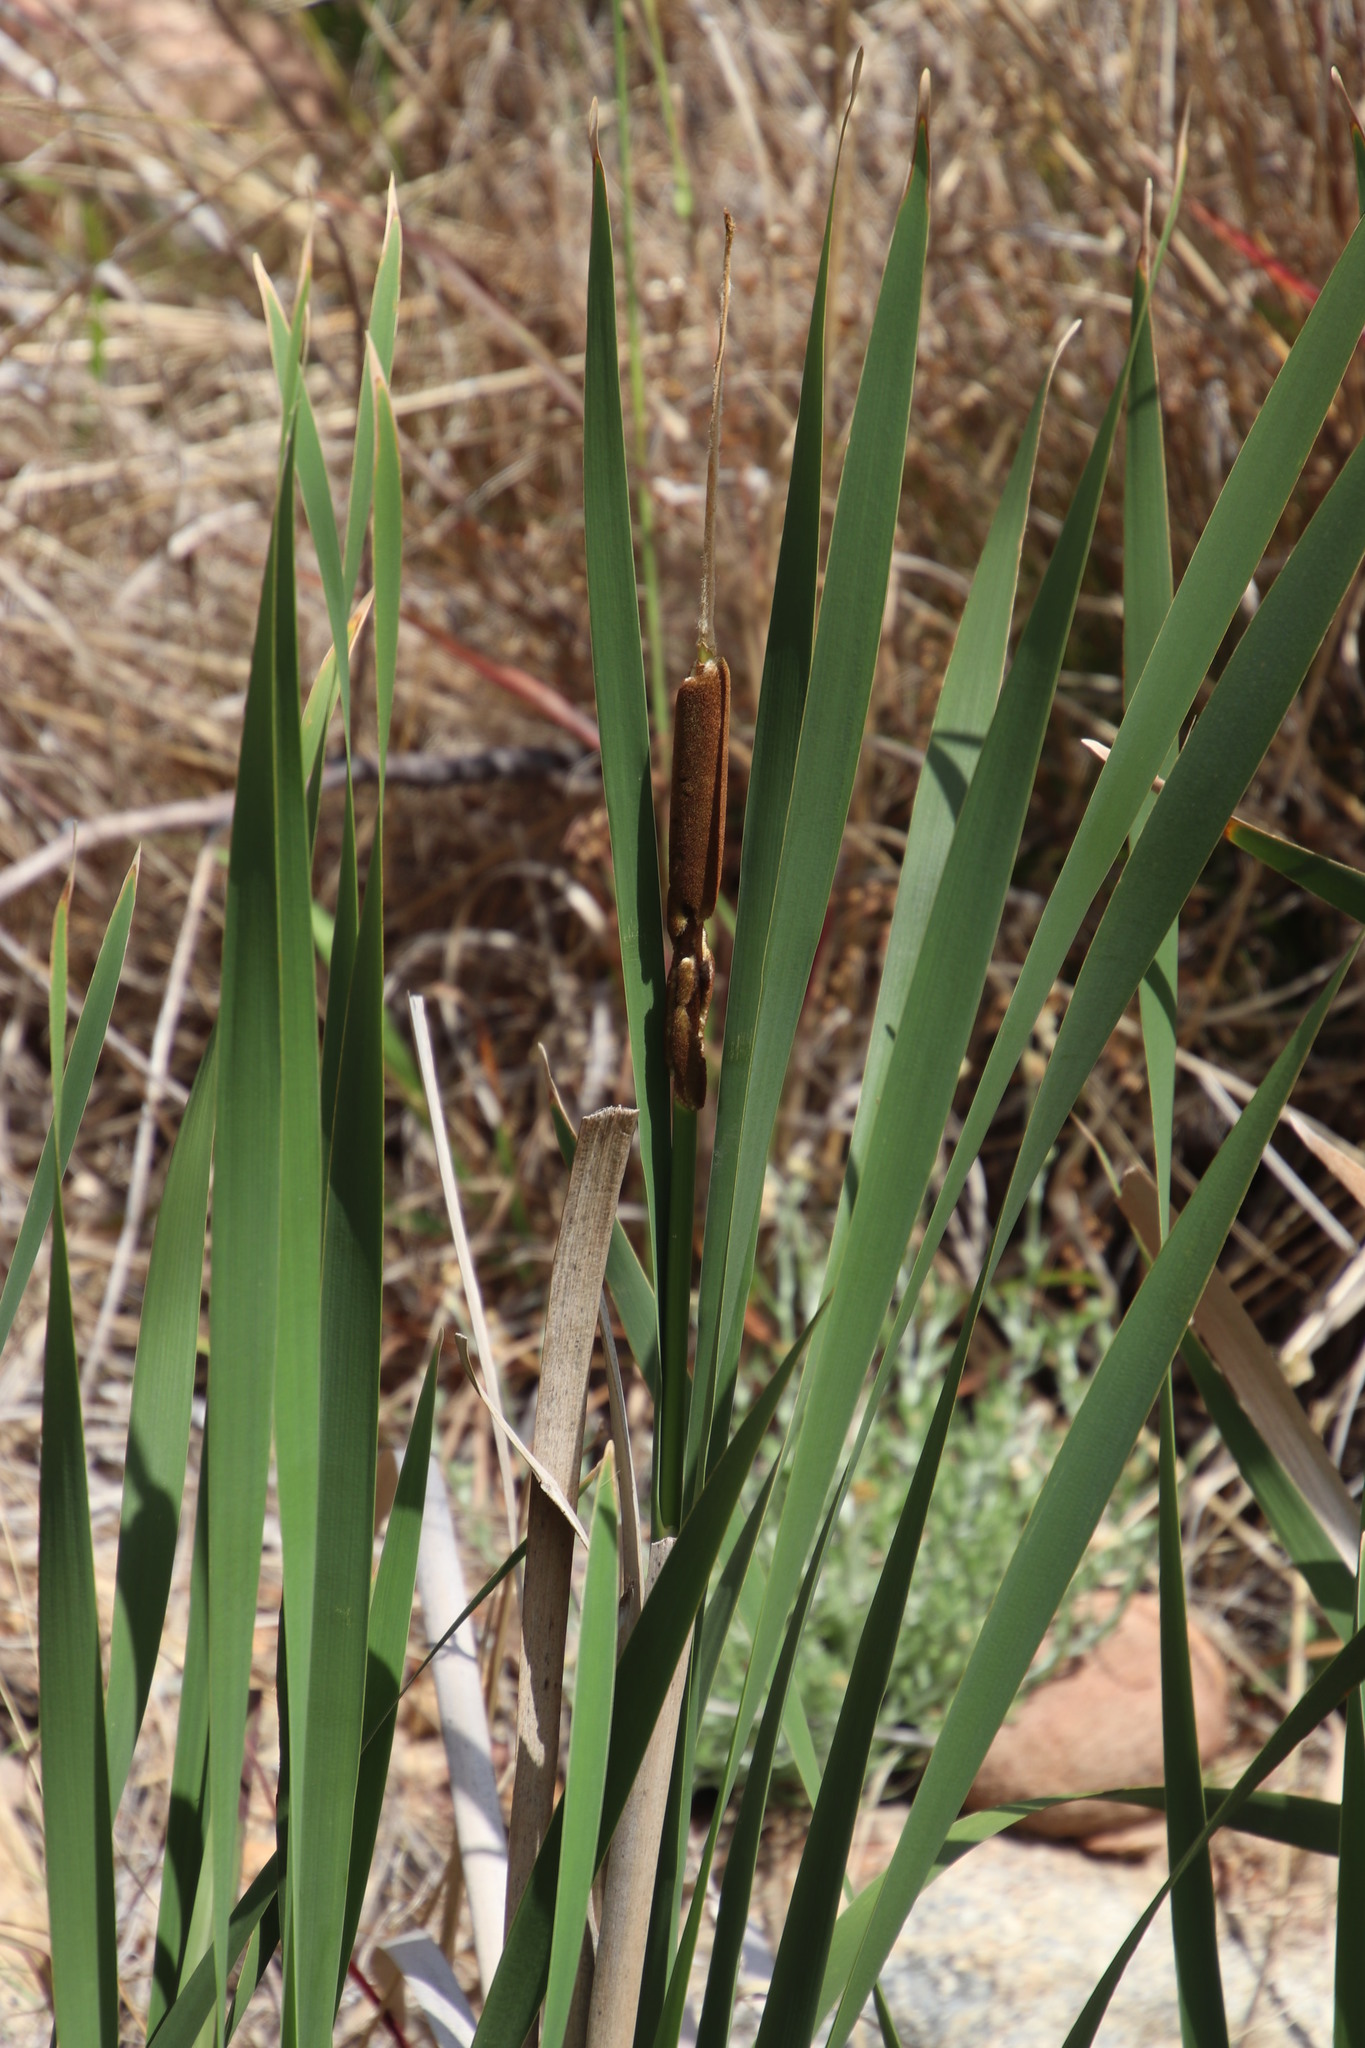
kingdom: Plantae
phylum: Tracheophyta
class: Liliopsida
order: Poales
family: Typhaceae
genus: Typha
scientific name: Typha capensis
